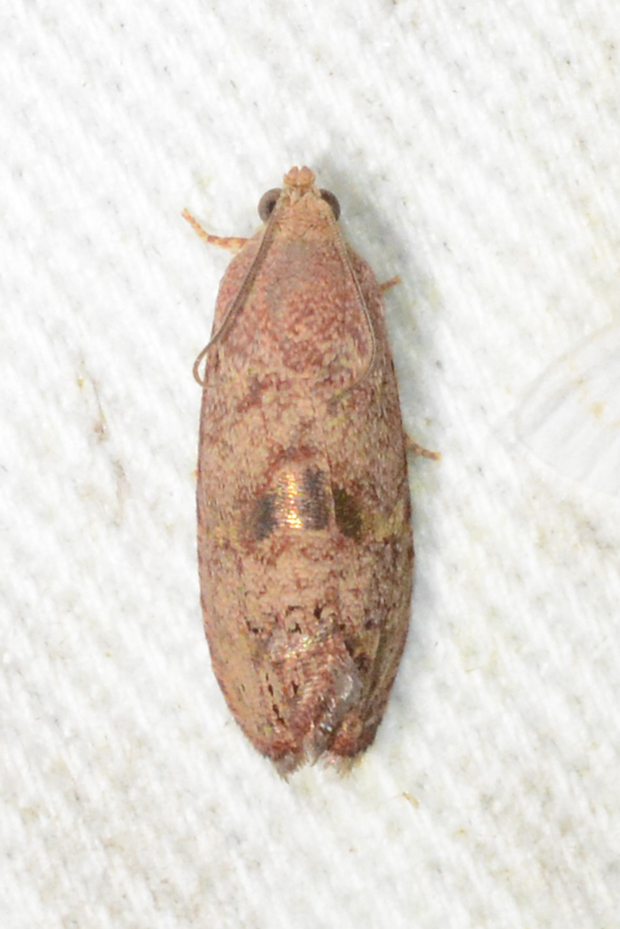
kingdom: Animalia
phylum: Arthropoda
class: Insecta
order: Lepidoptera
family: Tortricidae
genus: Cydia
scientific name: Cydia latiferreana
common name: Filbertworm moth
